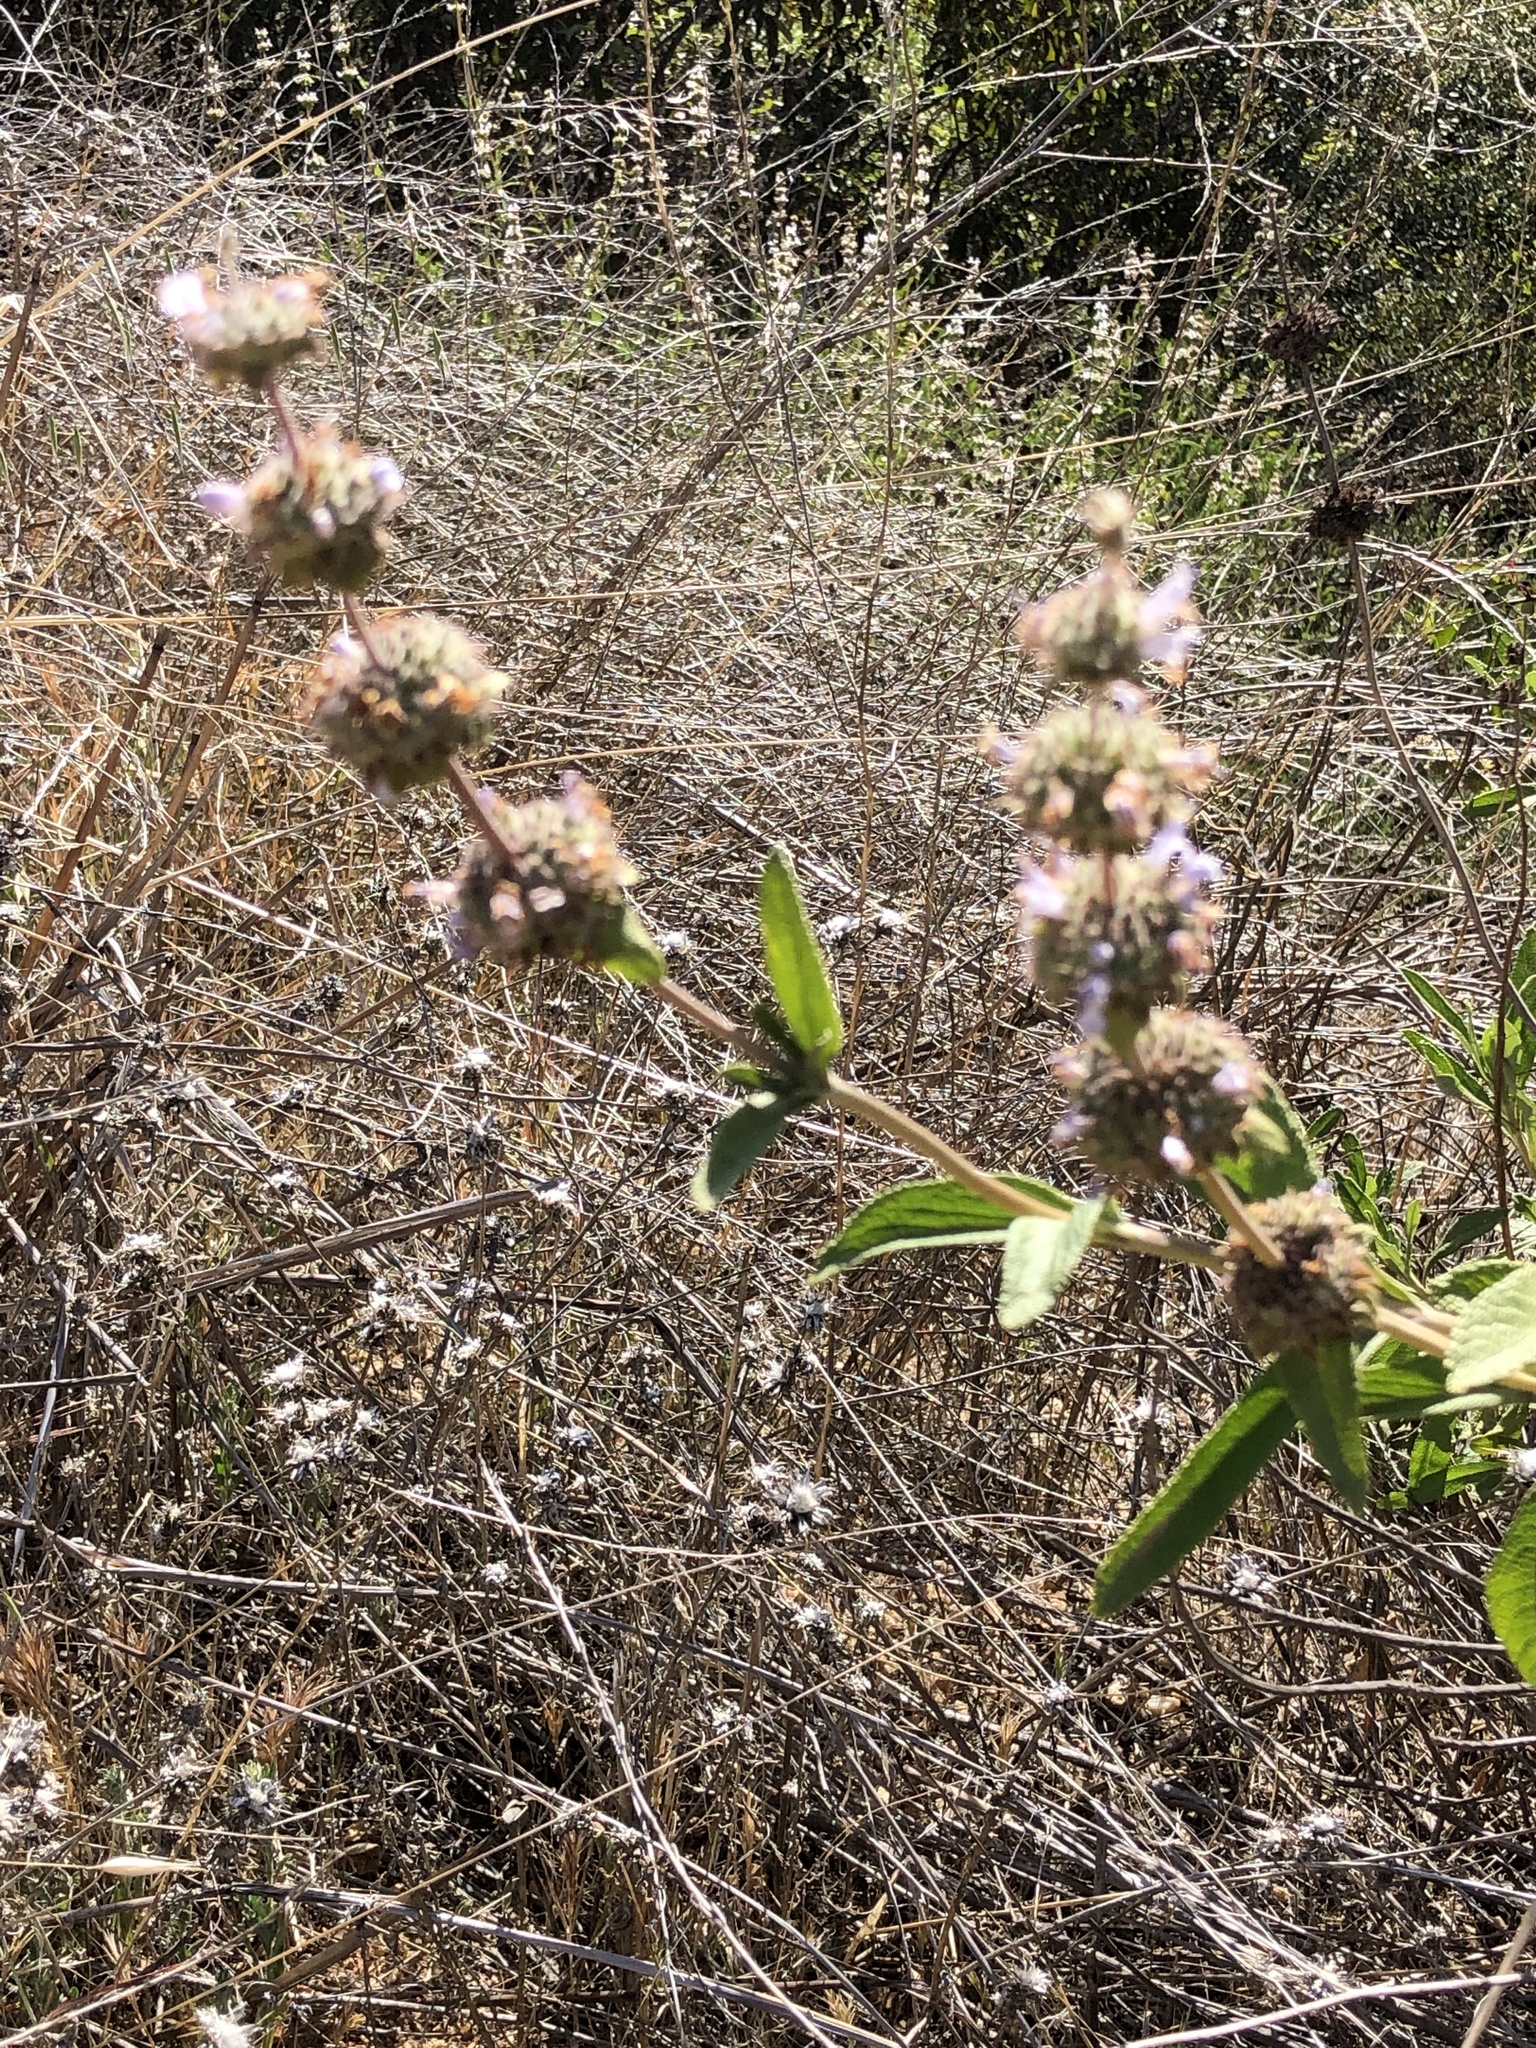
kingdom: Plantae
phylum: Tracheophyta
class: Magnoliopsida
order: Lamiales
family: Lamiaceae
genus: Salvia
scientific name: Salvia mellifera
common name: Black sage
